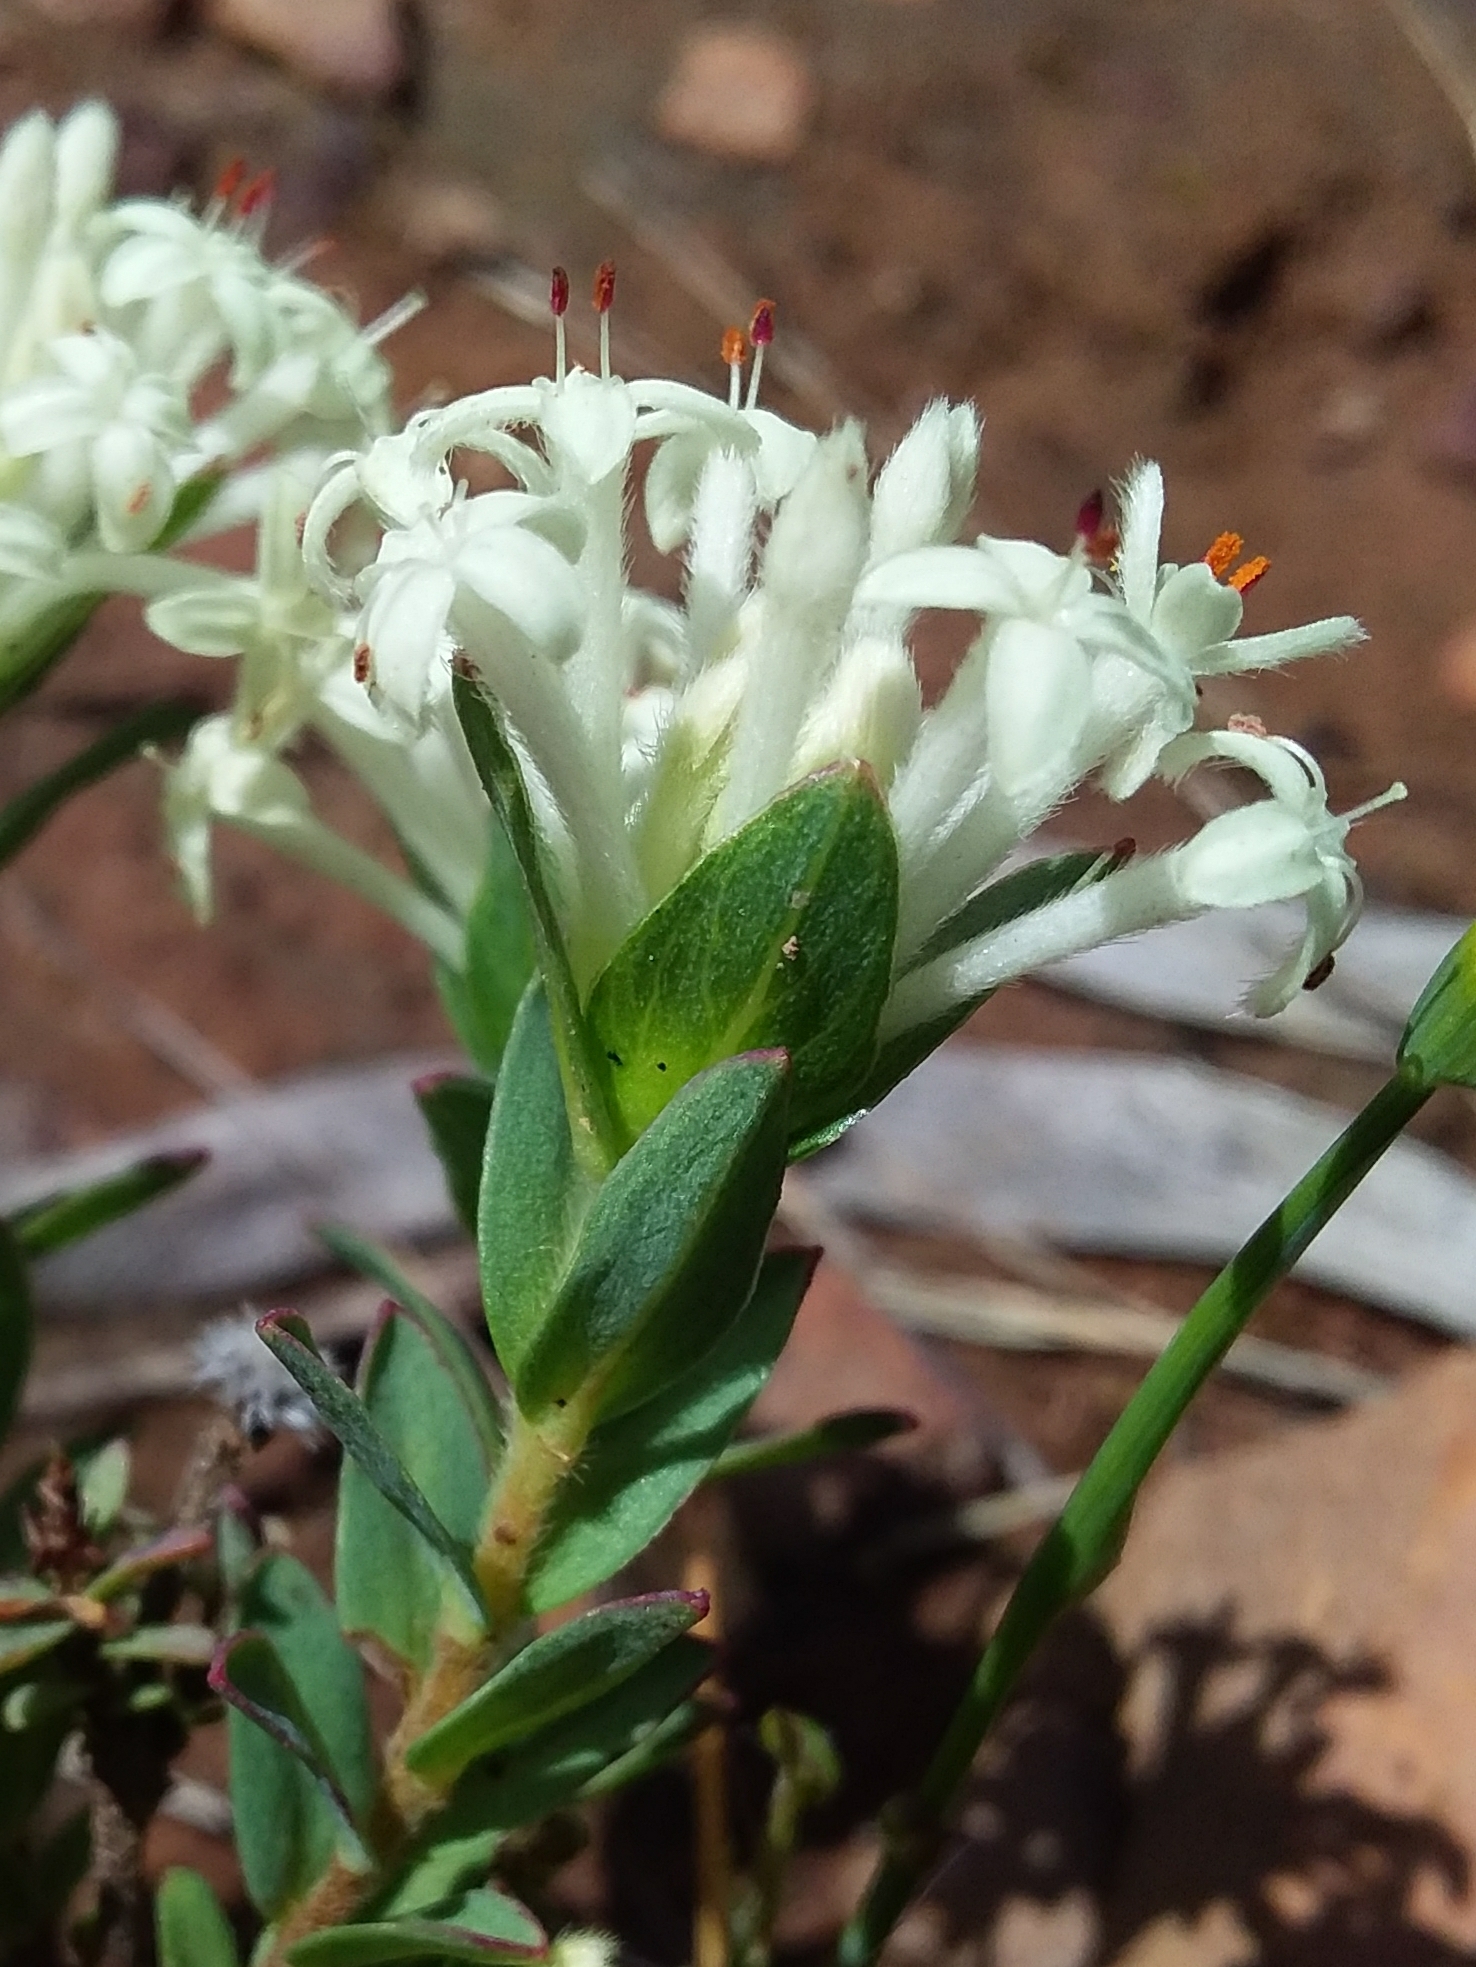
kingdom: Plantae
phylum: Tracheophyta
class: Magnoliopsida
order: Malvales
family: Thymelaeaceae
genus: Pimelea
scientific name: Pimelea humilis
